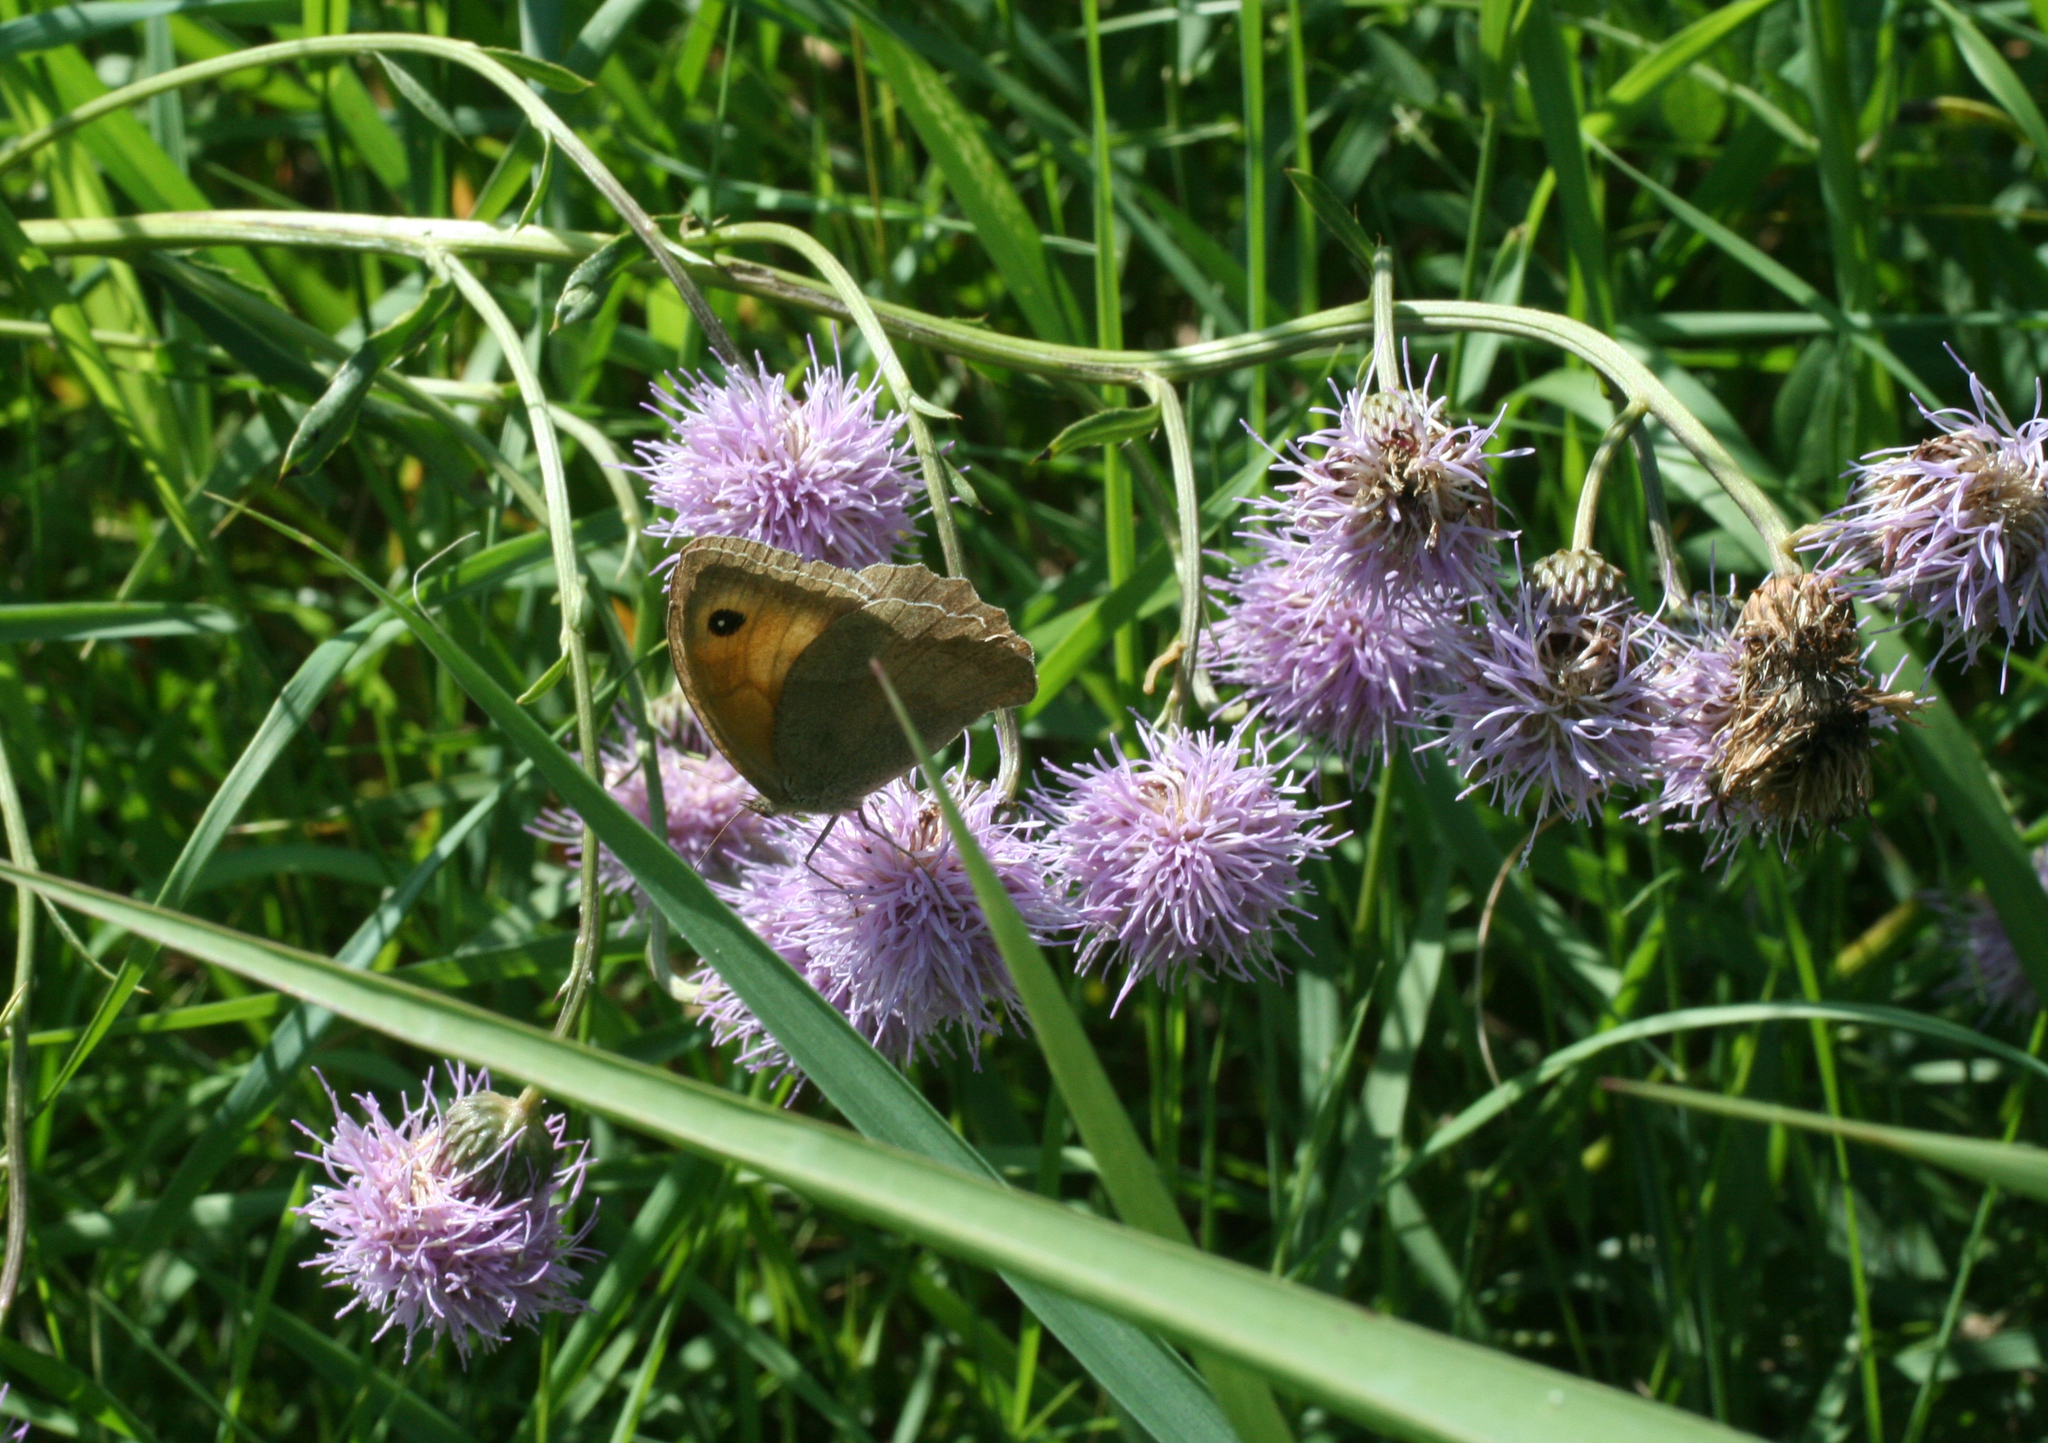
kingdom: Plantae
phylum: Tracheophyta
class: Magnoliopsida
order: Asterales
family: Asteraceae
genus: Cirsium
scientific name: Cirsium arvense
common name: Creeping thistle
